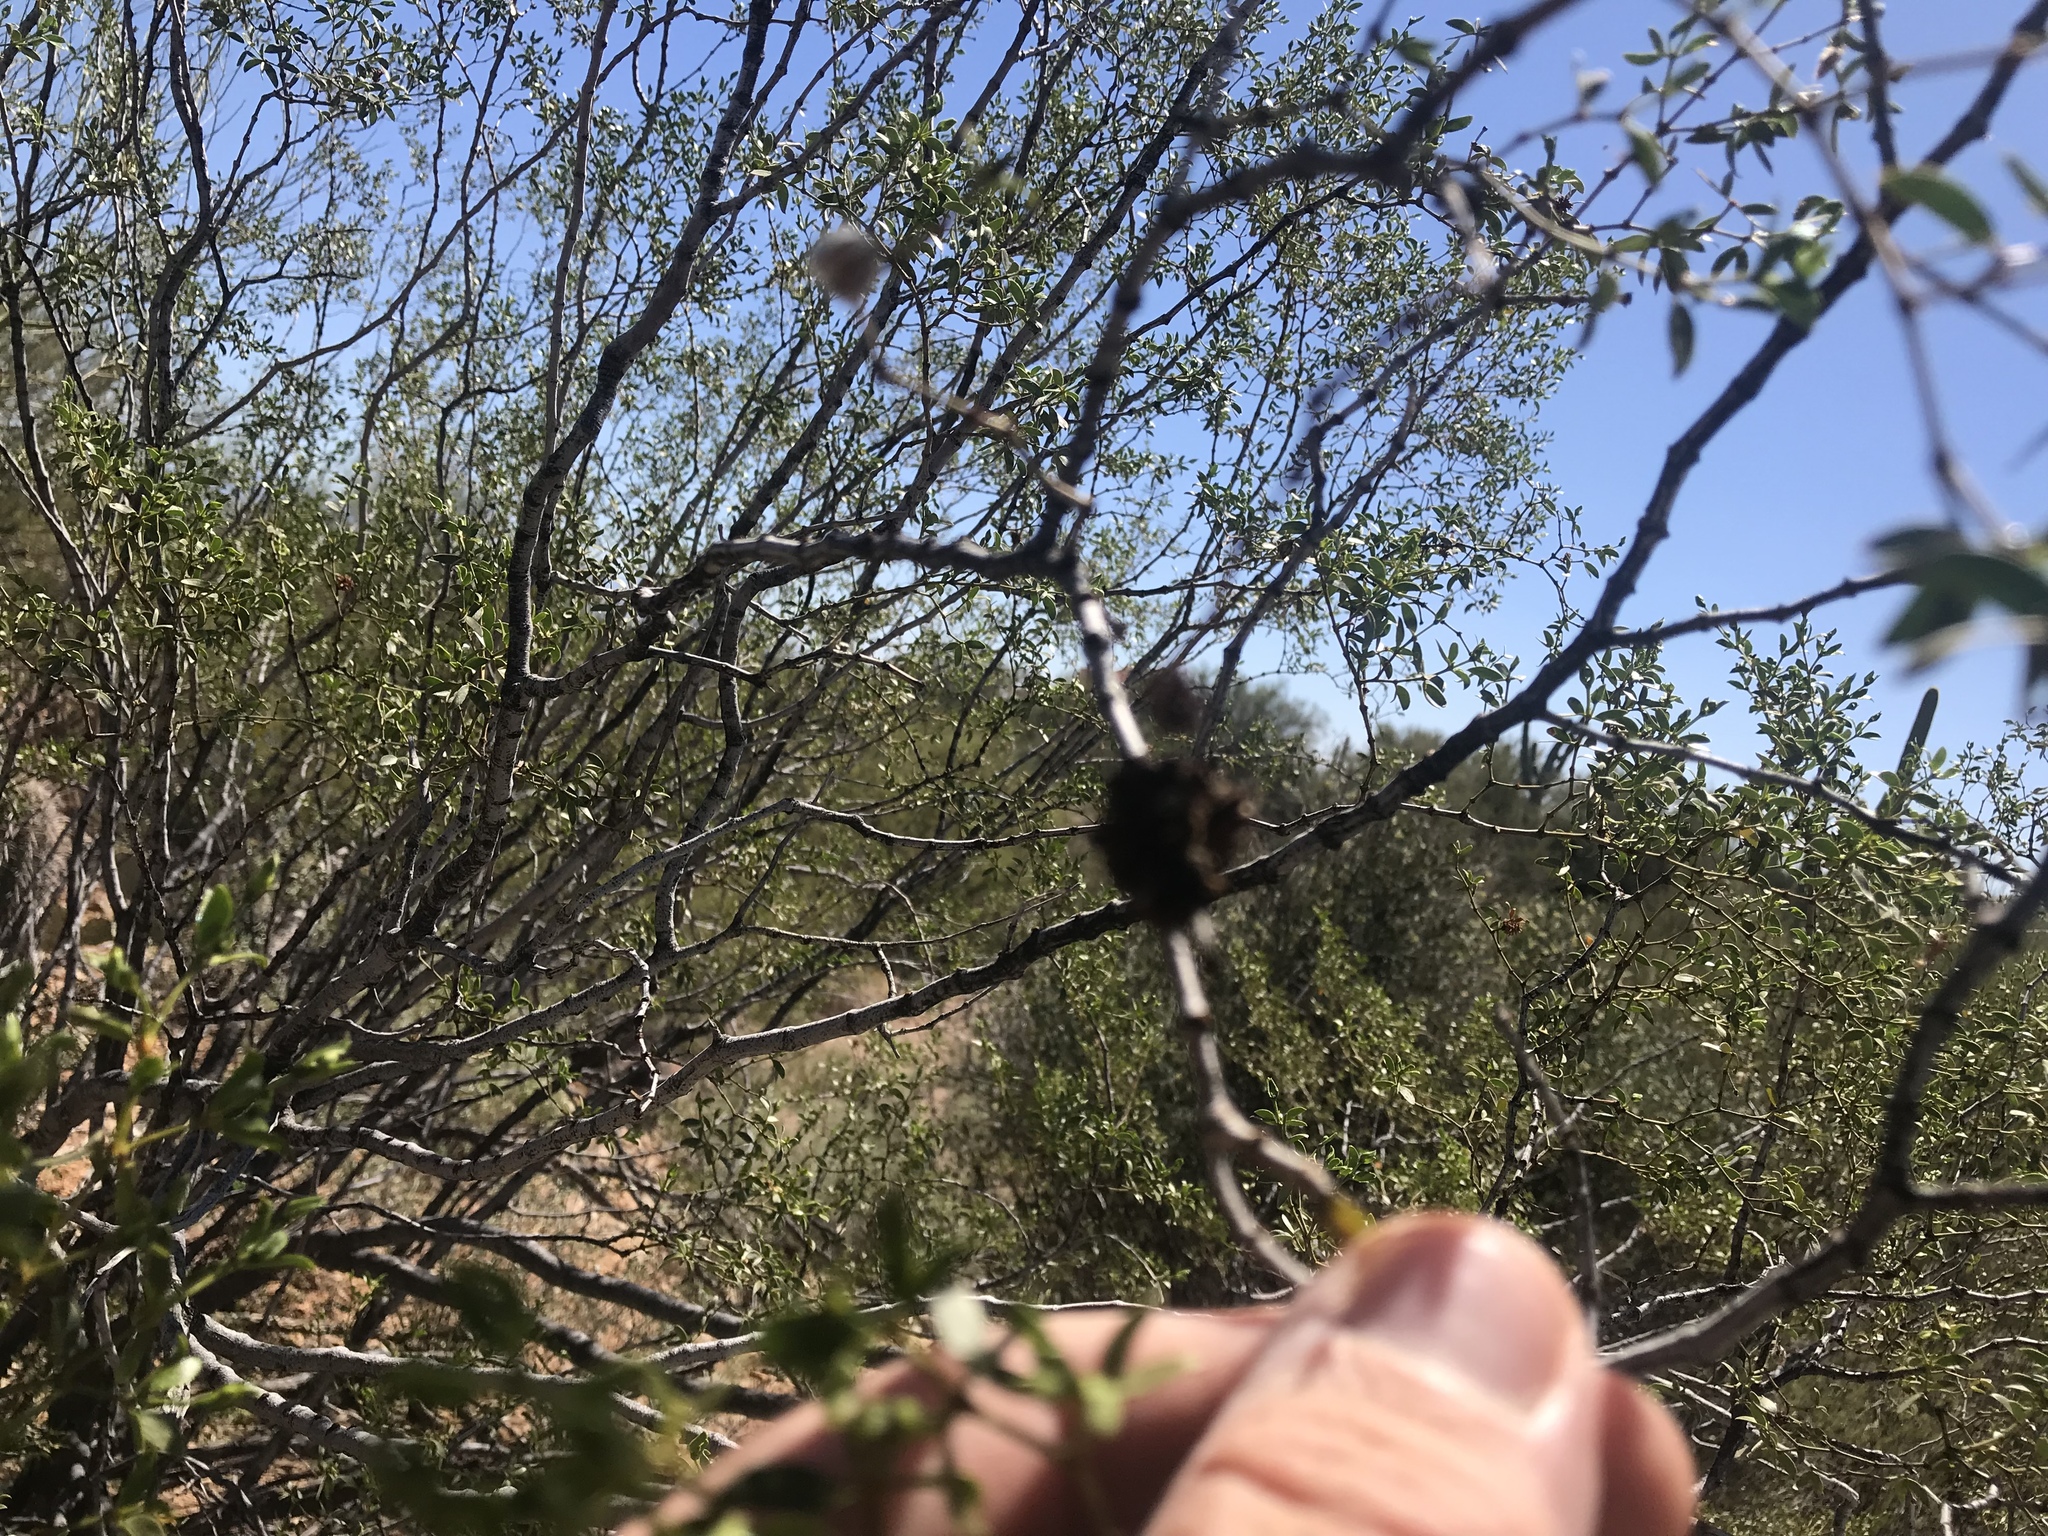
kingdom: Animalia
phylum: Arthropoda
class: Insecta
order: Diptera
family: Cecidomyiidae
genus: Asphondylia
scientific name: Asphondylia auripila
